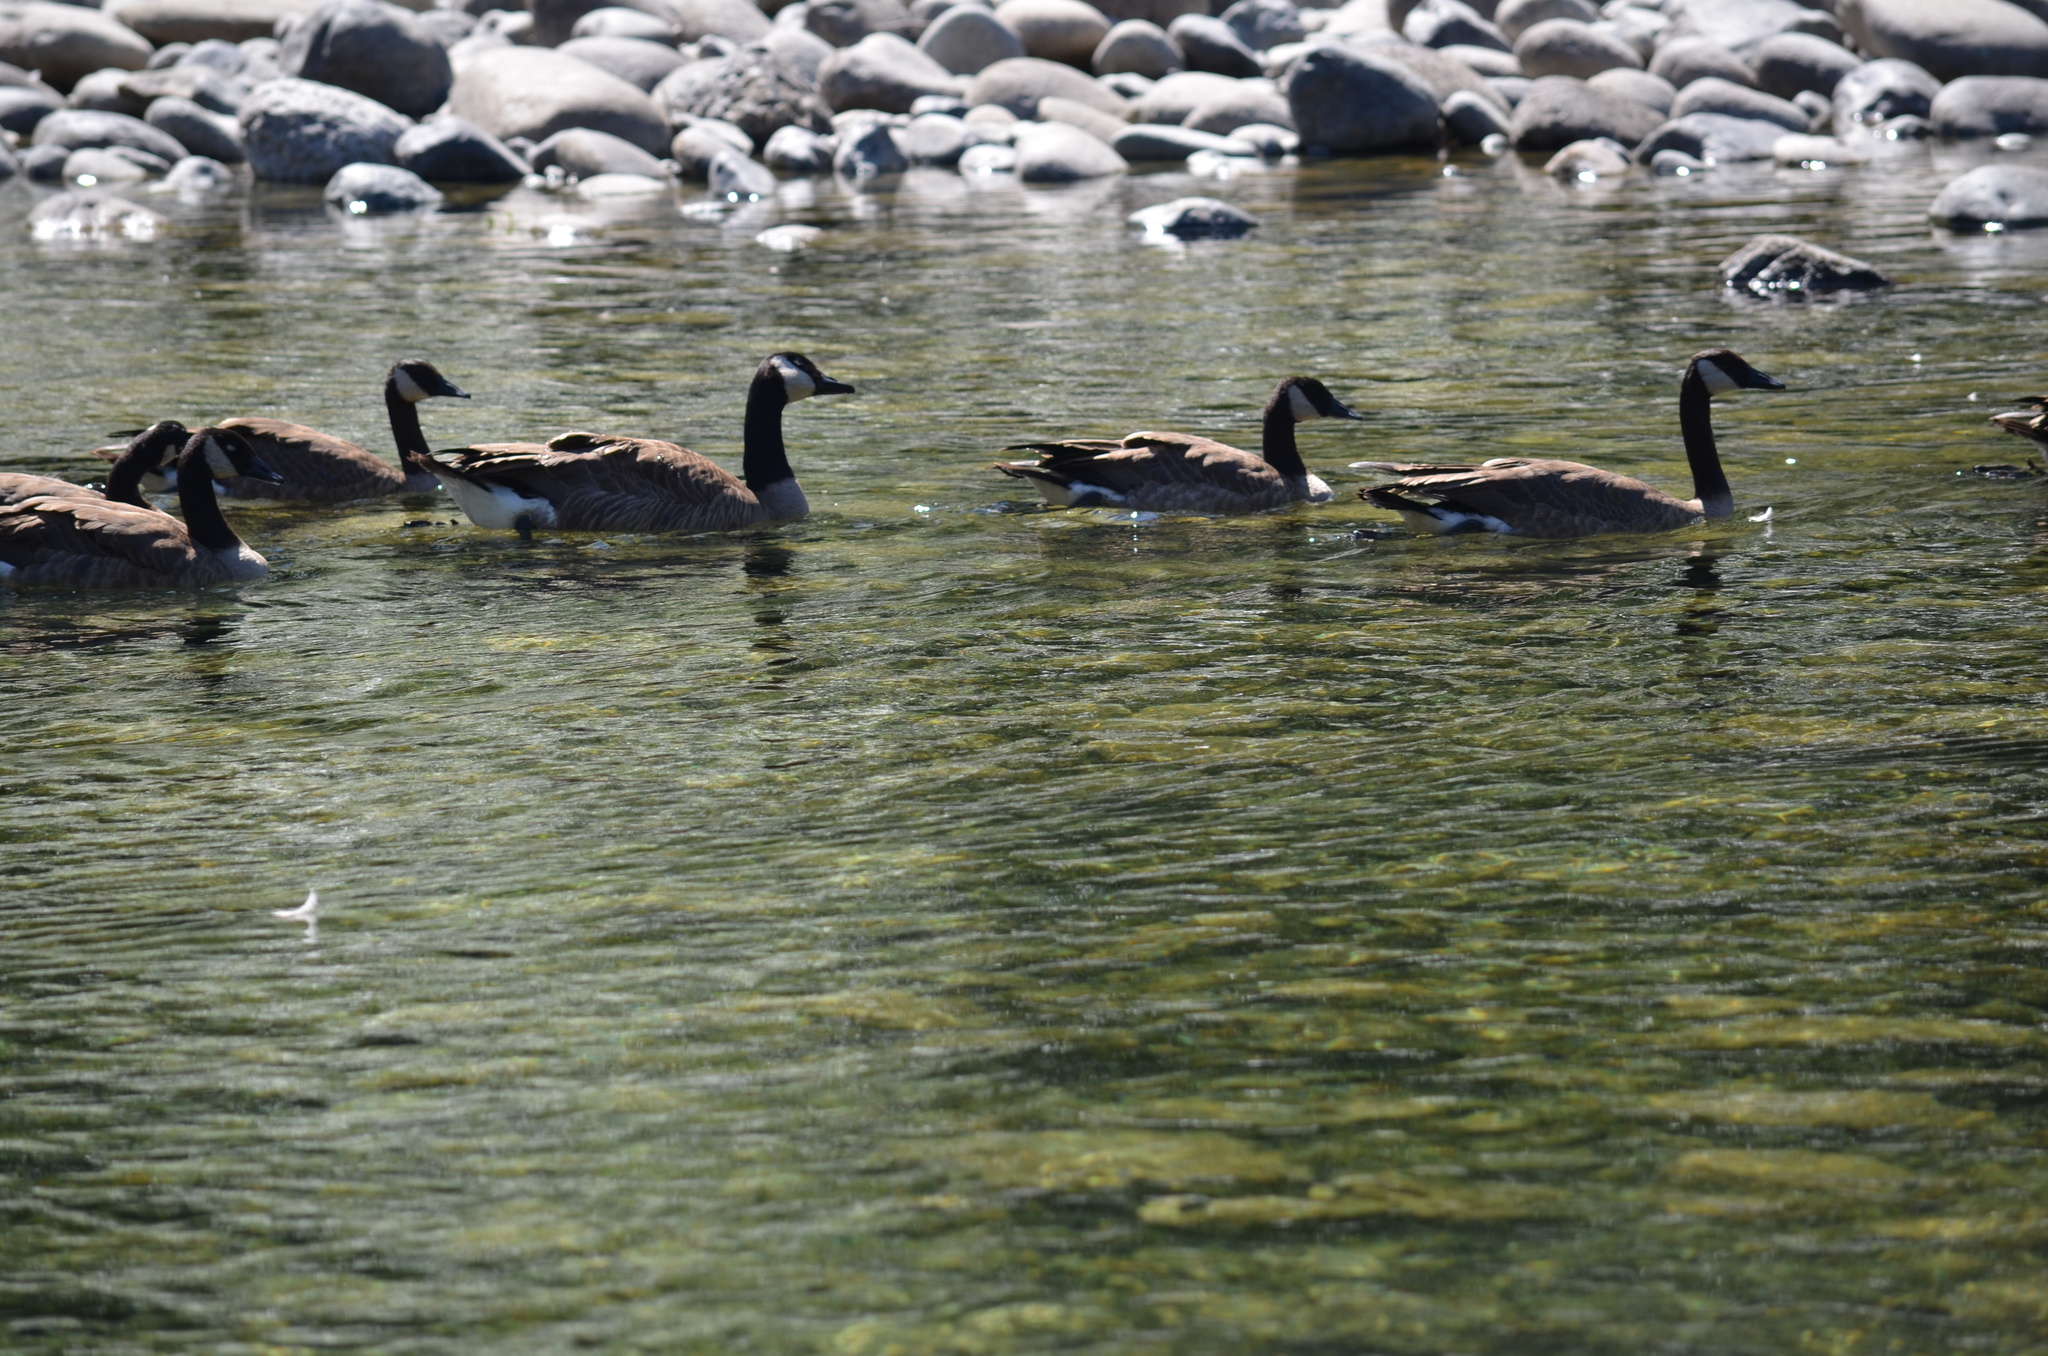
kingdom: Animalia
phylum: Chordata
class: Aves
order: Anseriformes
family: Anatidae
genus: Branta
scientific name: Branta canadensis
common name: Canada goose
